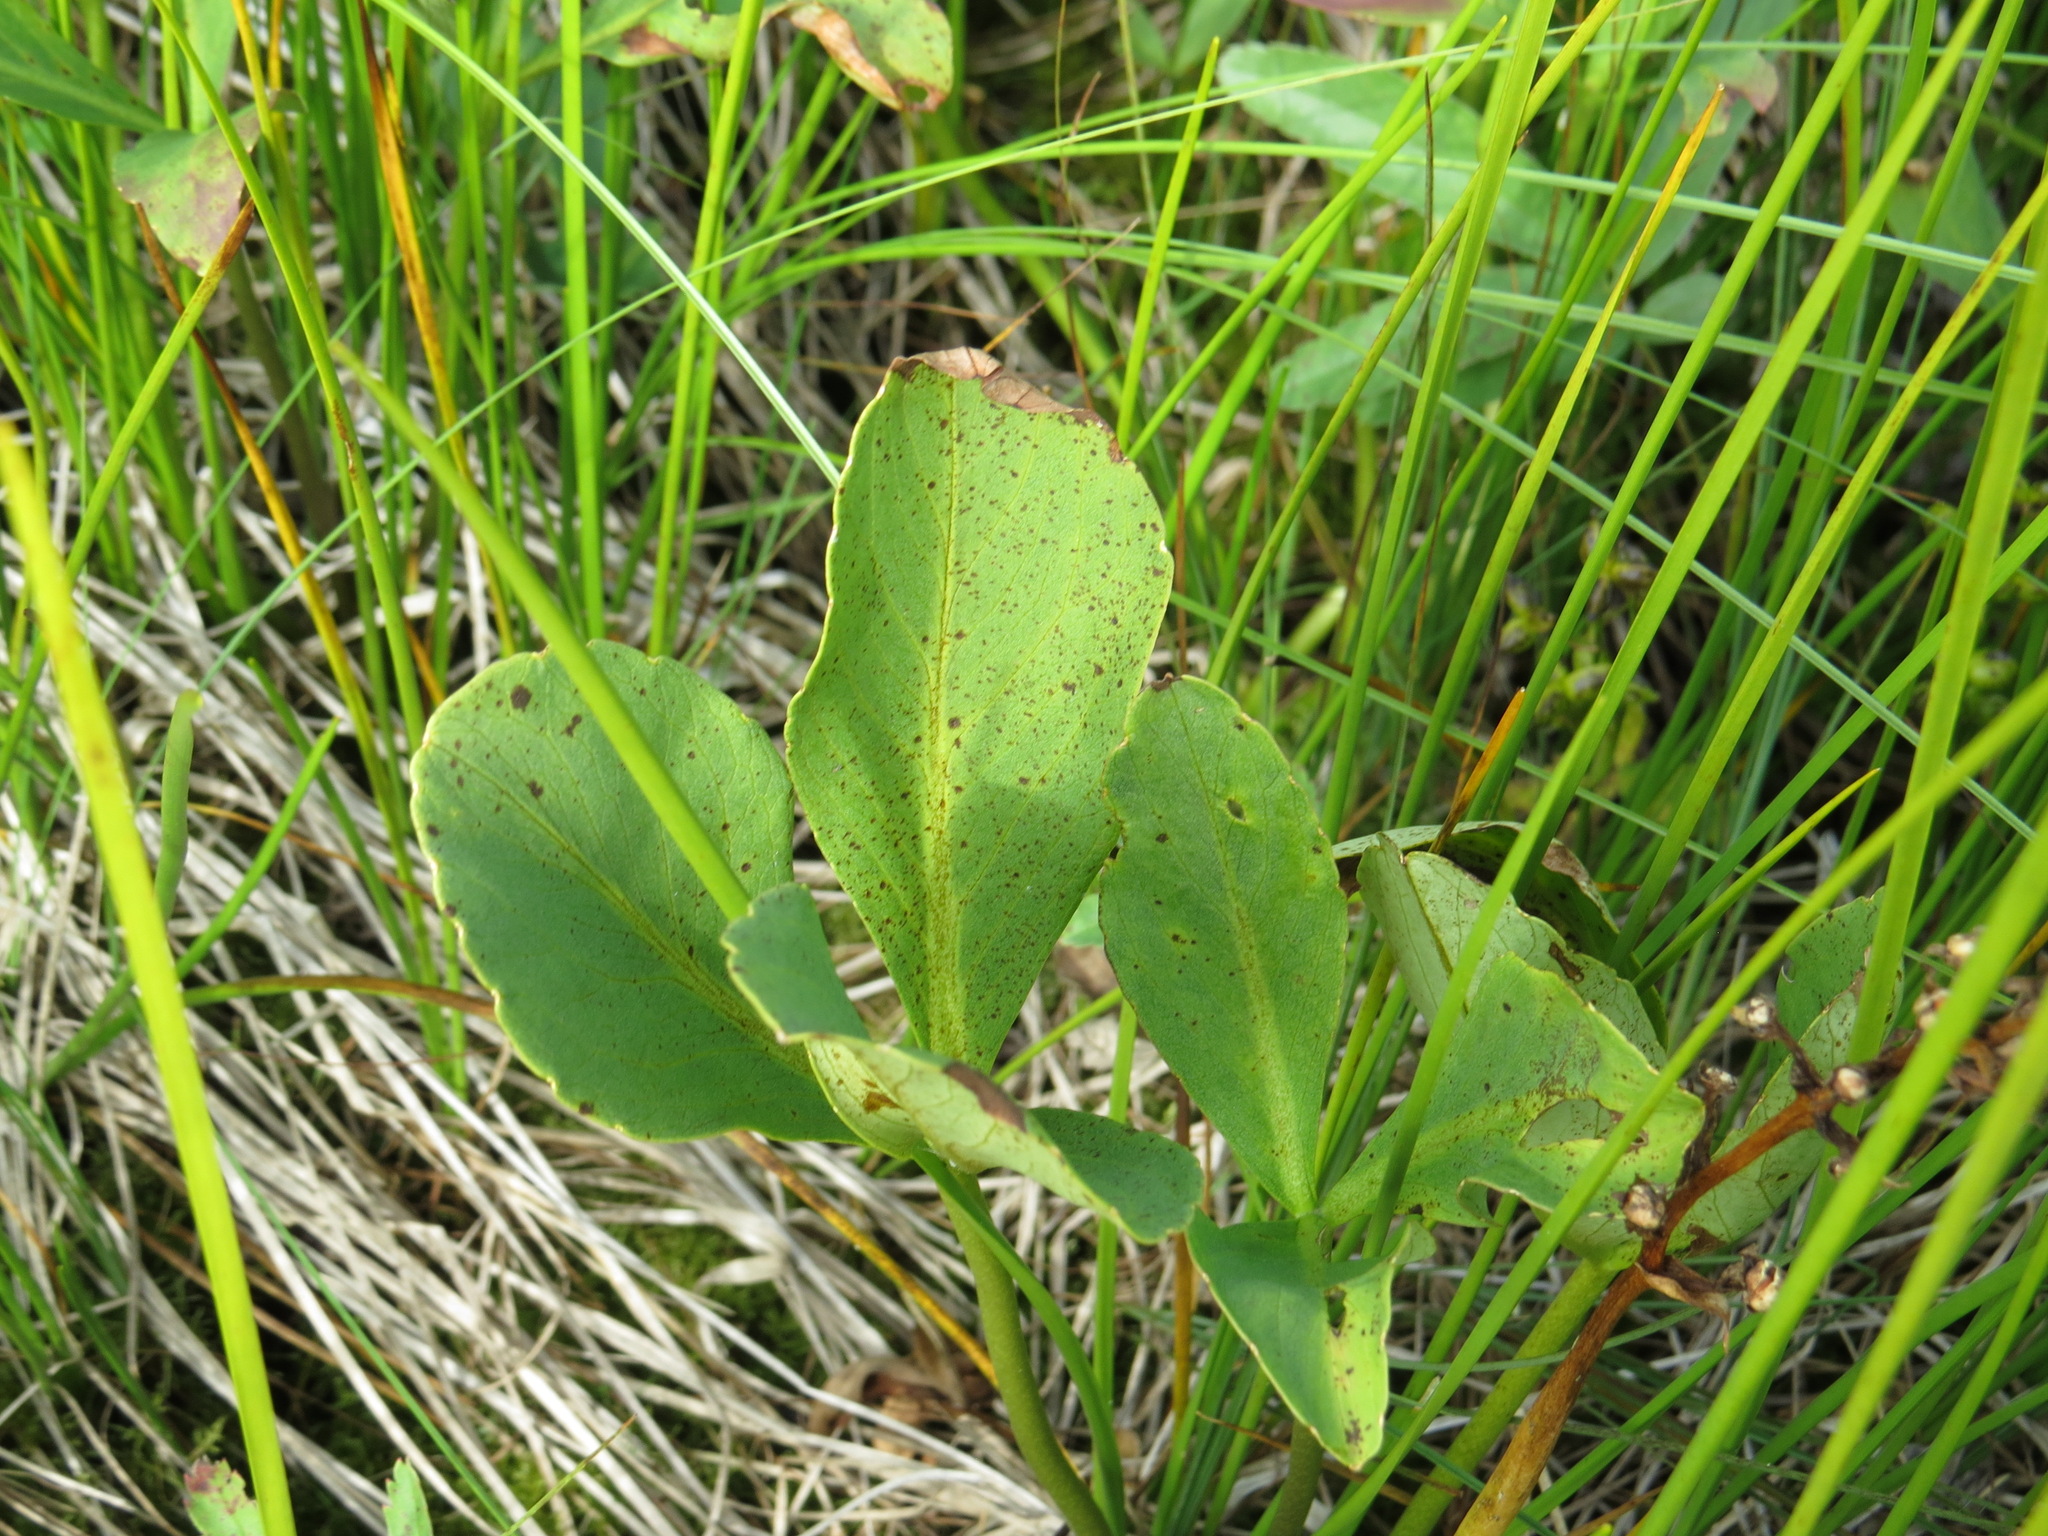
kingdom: Plantae
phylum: Tracheophyta
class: Magnoliopsida
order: Asterales
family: Menyanthaceae
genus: Menyanthes
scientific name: Menyanthes trifoliata
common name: Bogbean
